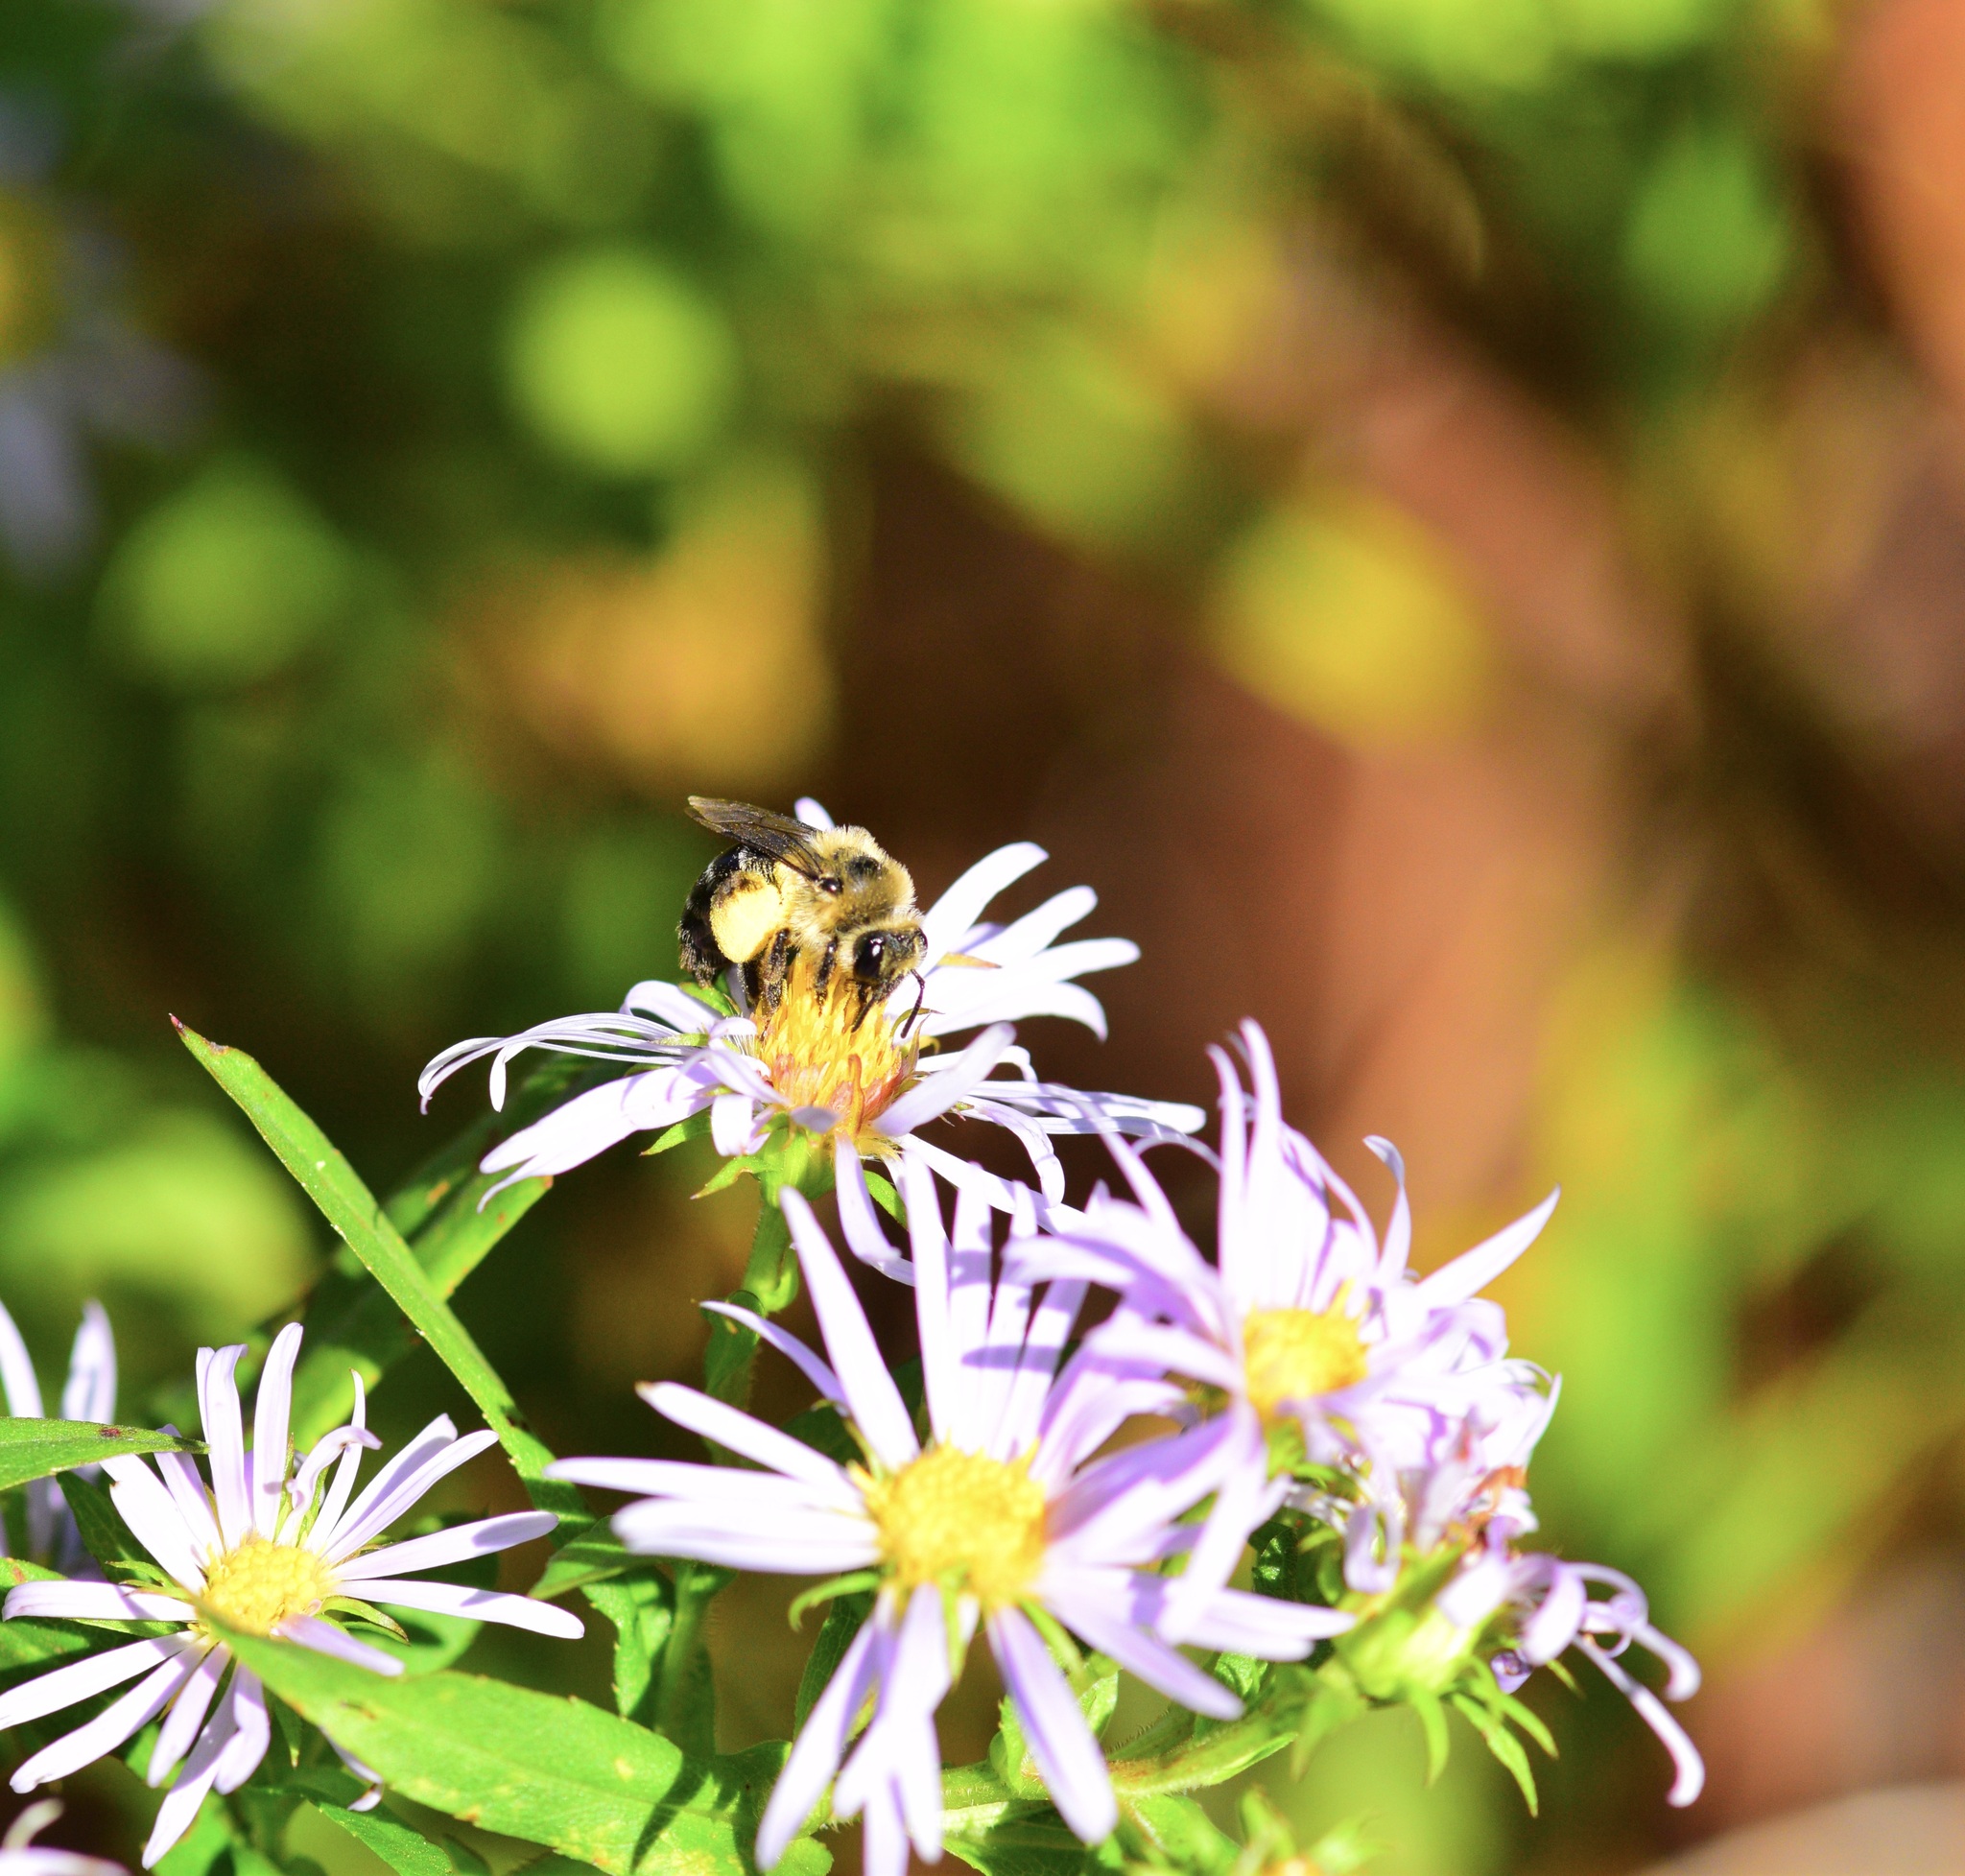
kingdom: Animalia
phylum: Arthropoda
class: Insecta
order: Hymenoptera
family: Andrenidae
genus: Andrena
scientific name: Andrena asteris
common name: Aster mining bee
